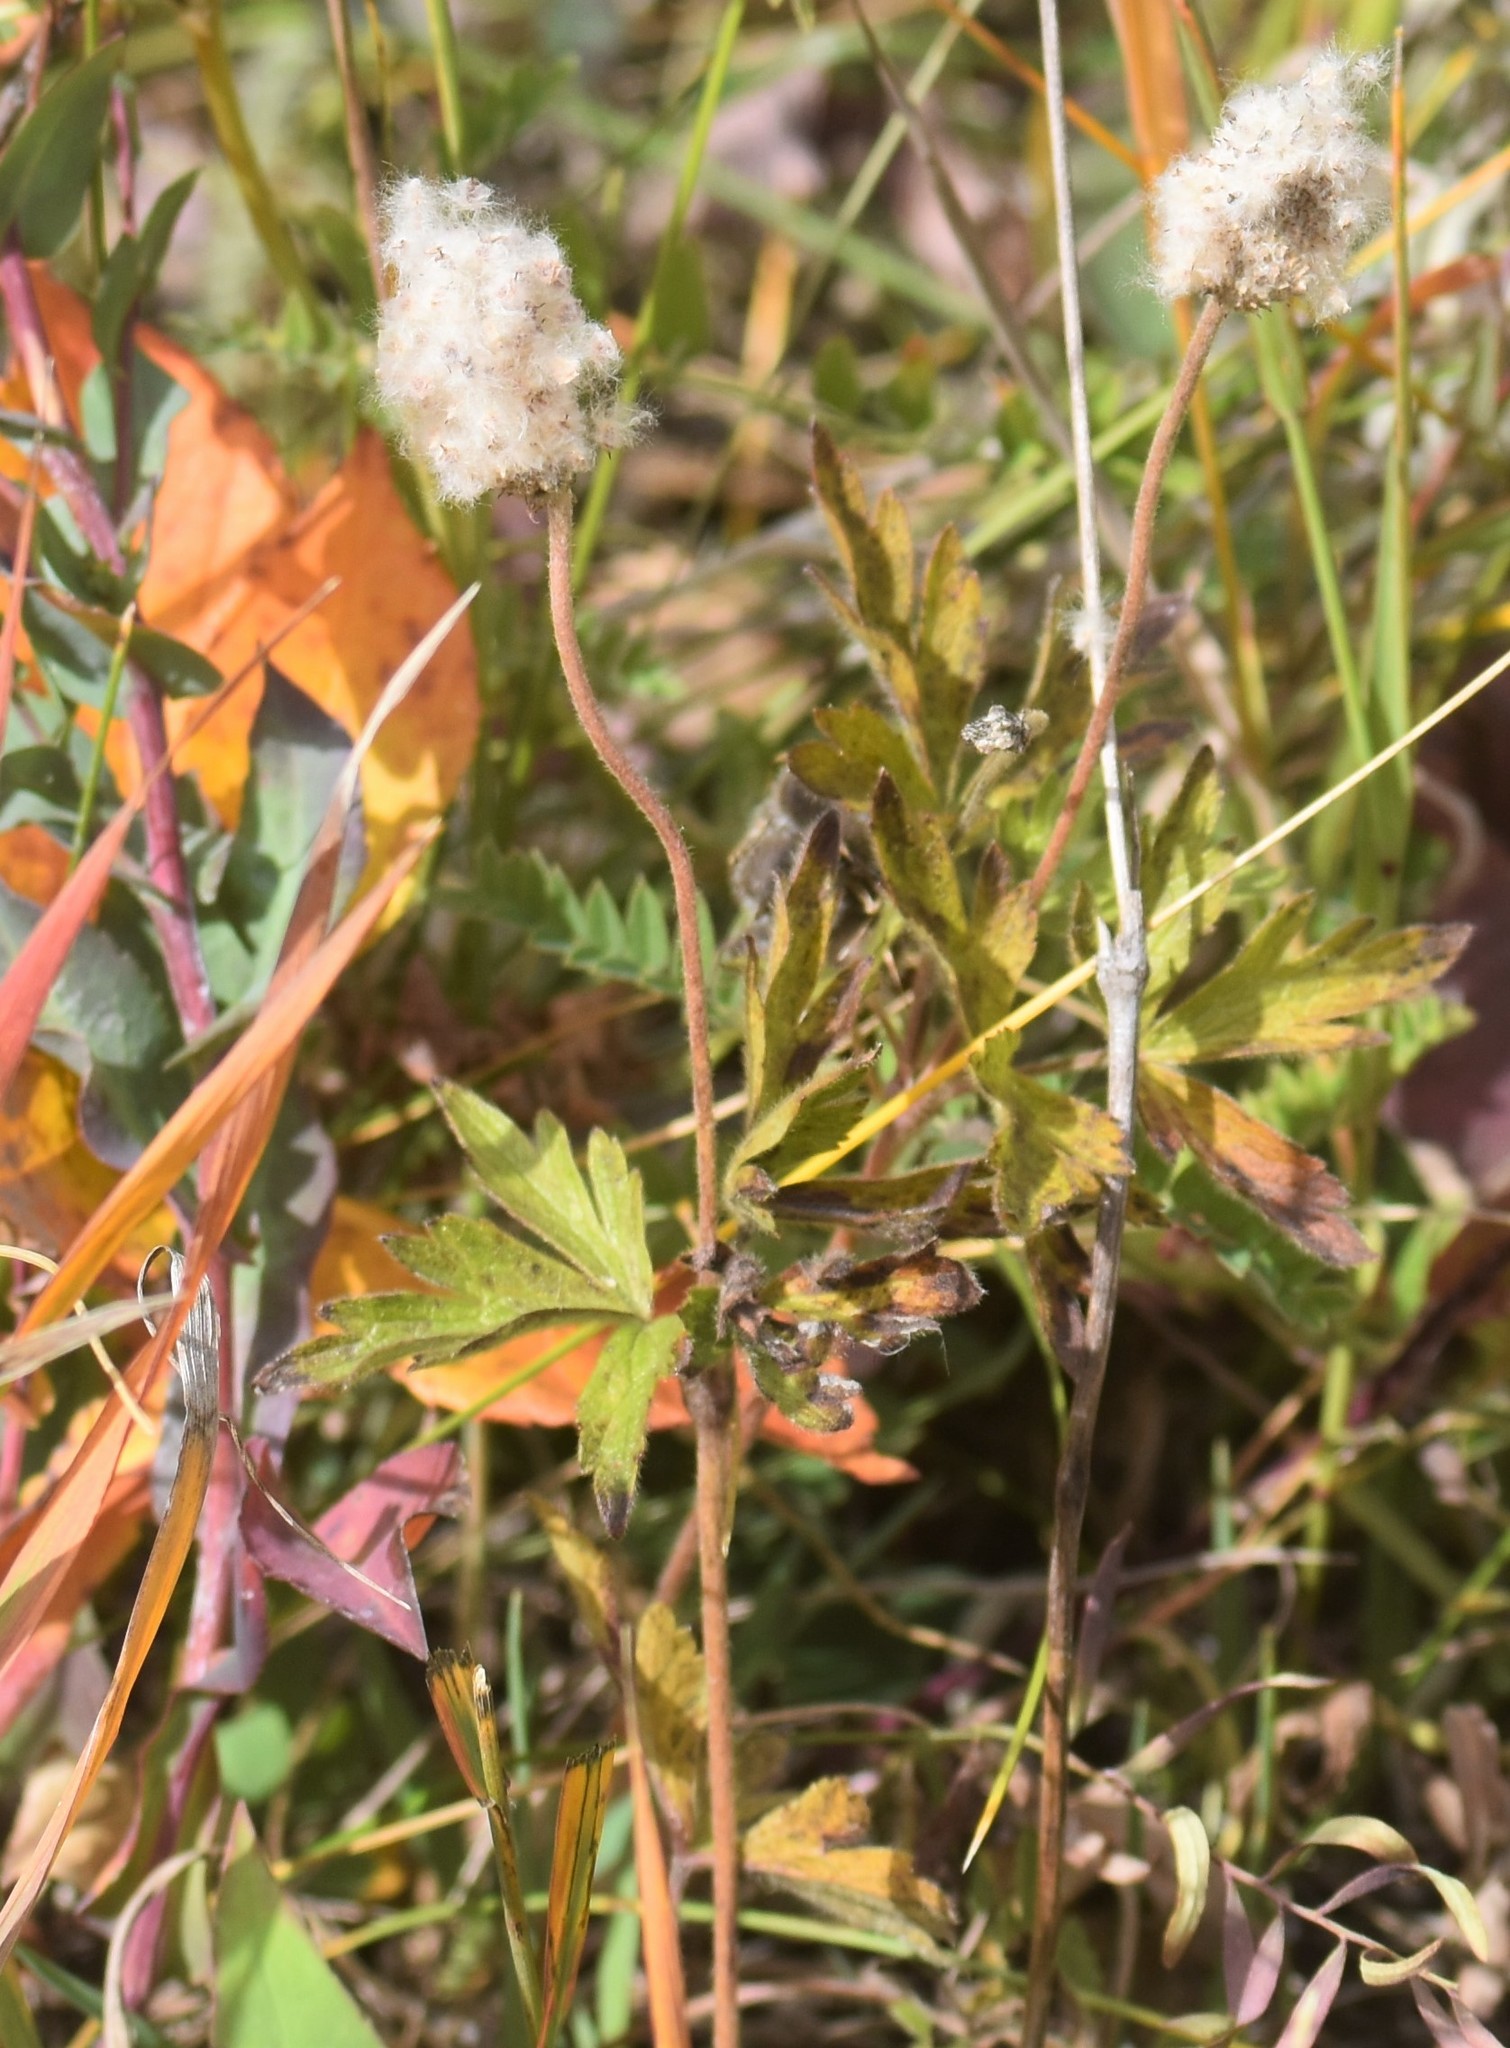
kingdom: Plantae
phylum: Tracheophyta
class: Magnoliopsida
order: Ranunculales
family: Ranunculaceae
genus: Anemone
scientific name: Anemone cylindrica
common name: Candle anemone
